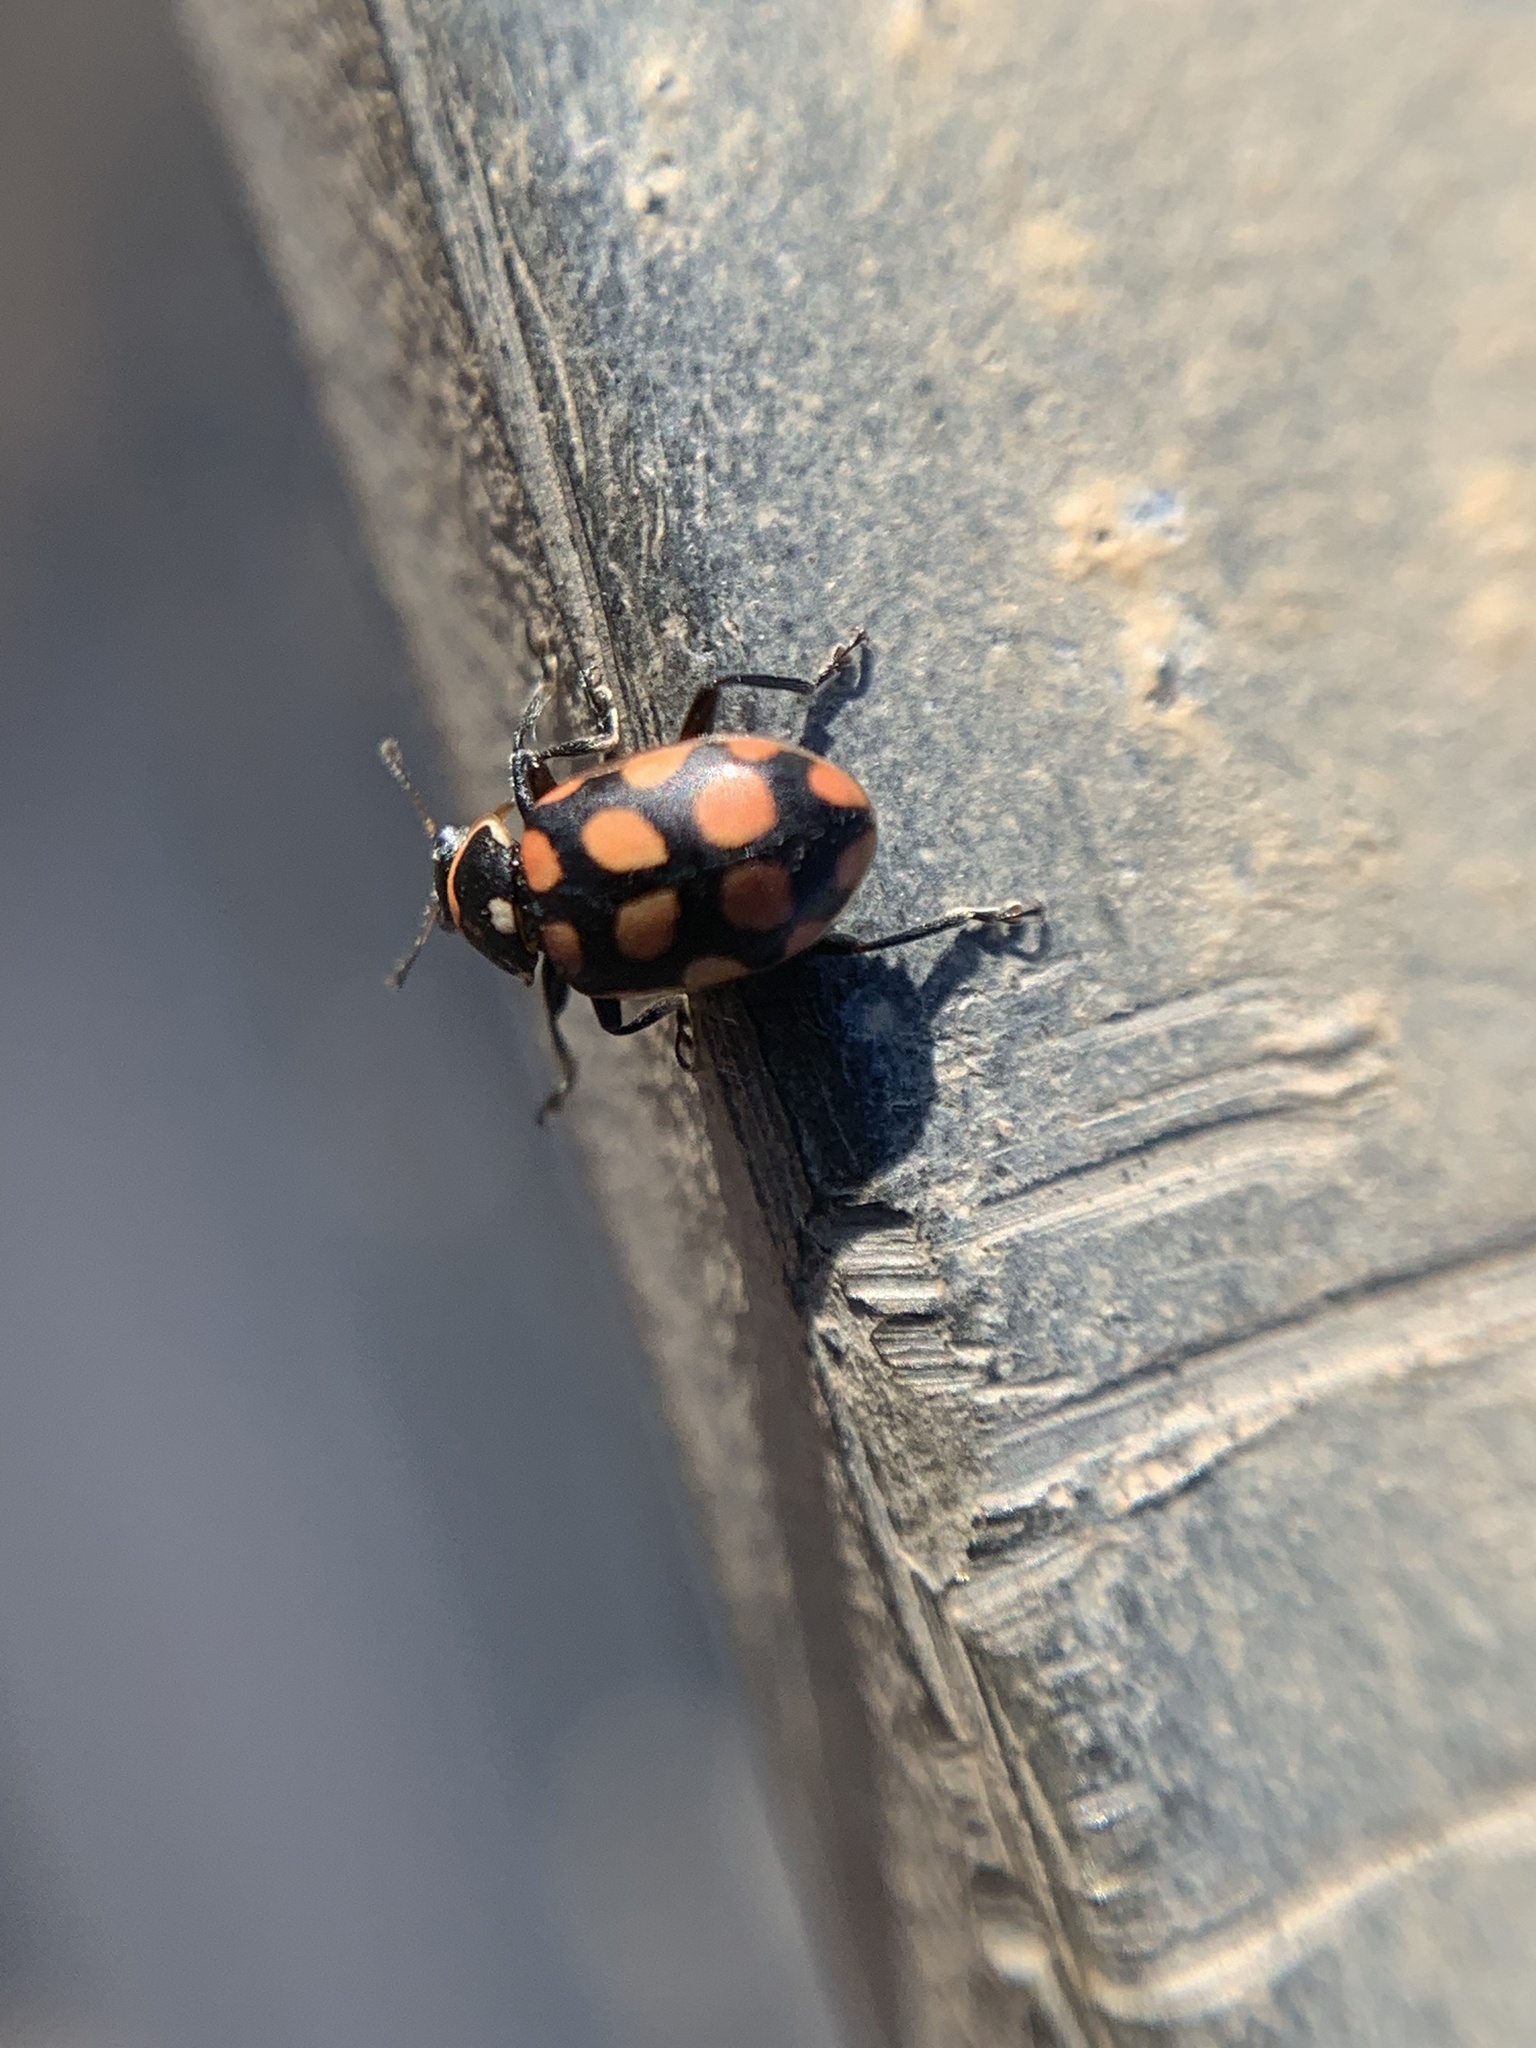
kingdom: Animalia
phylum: Arthropoda
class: Insecta
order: Coleoptera
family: Coccinellidae
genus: Coleomegilla
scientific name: Coleomegilla
